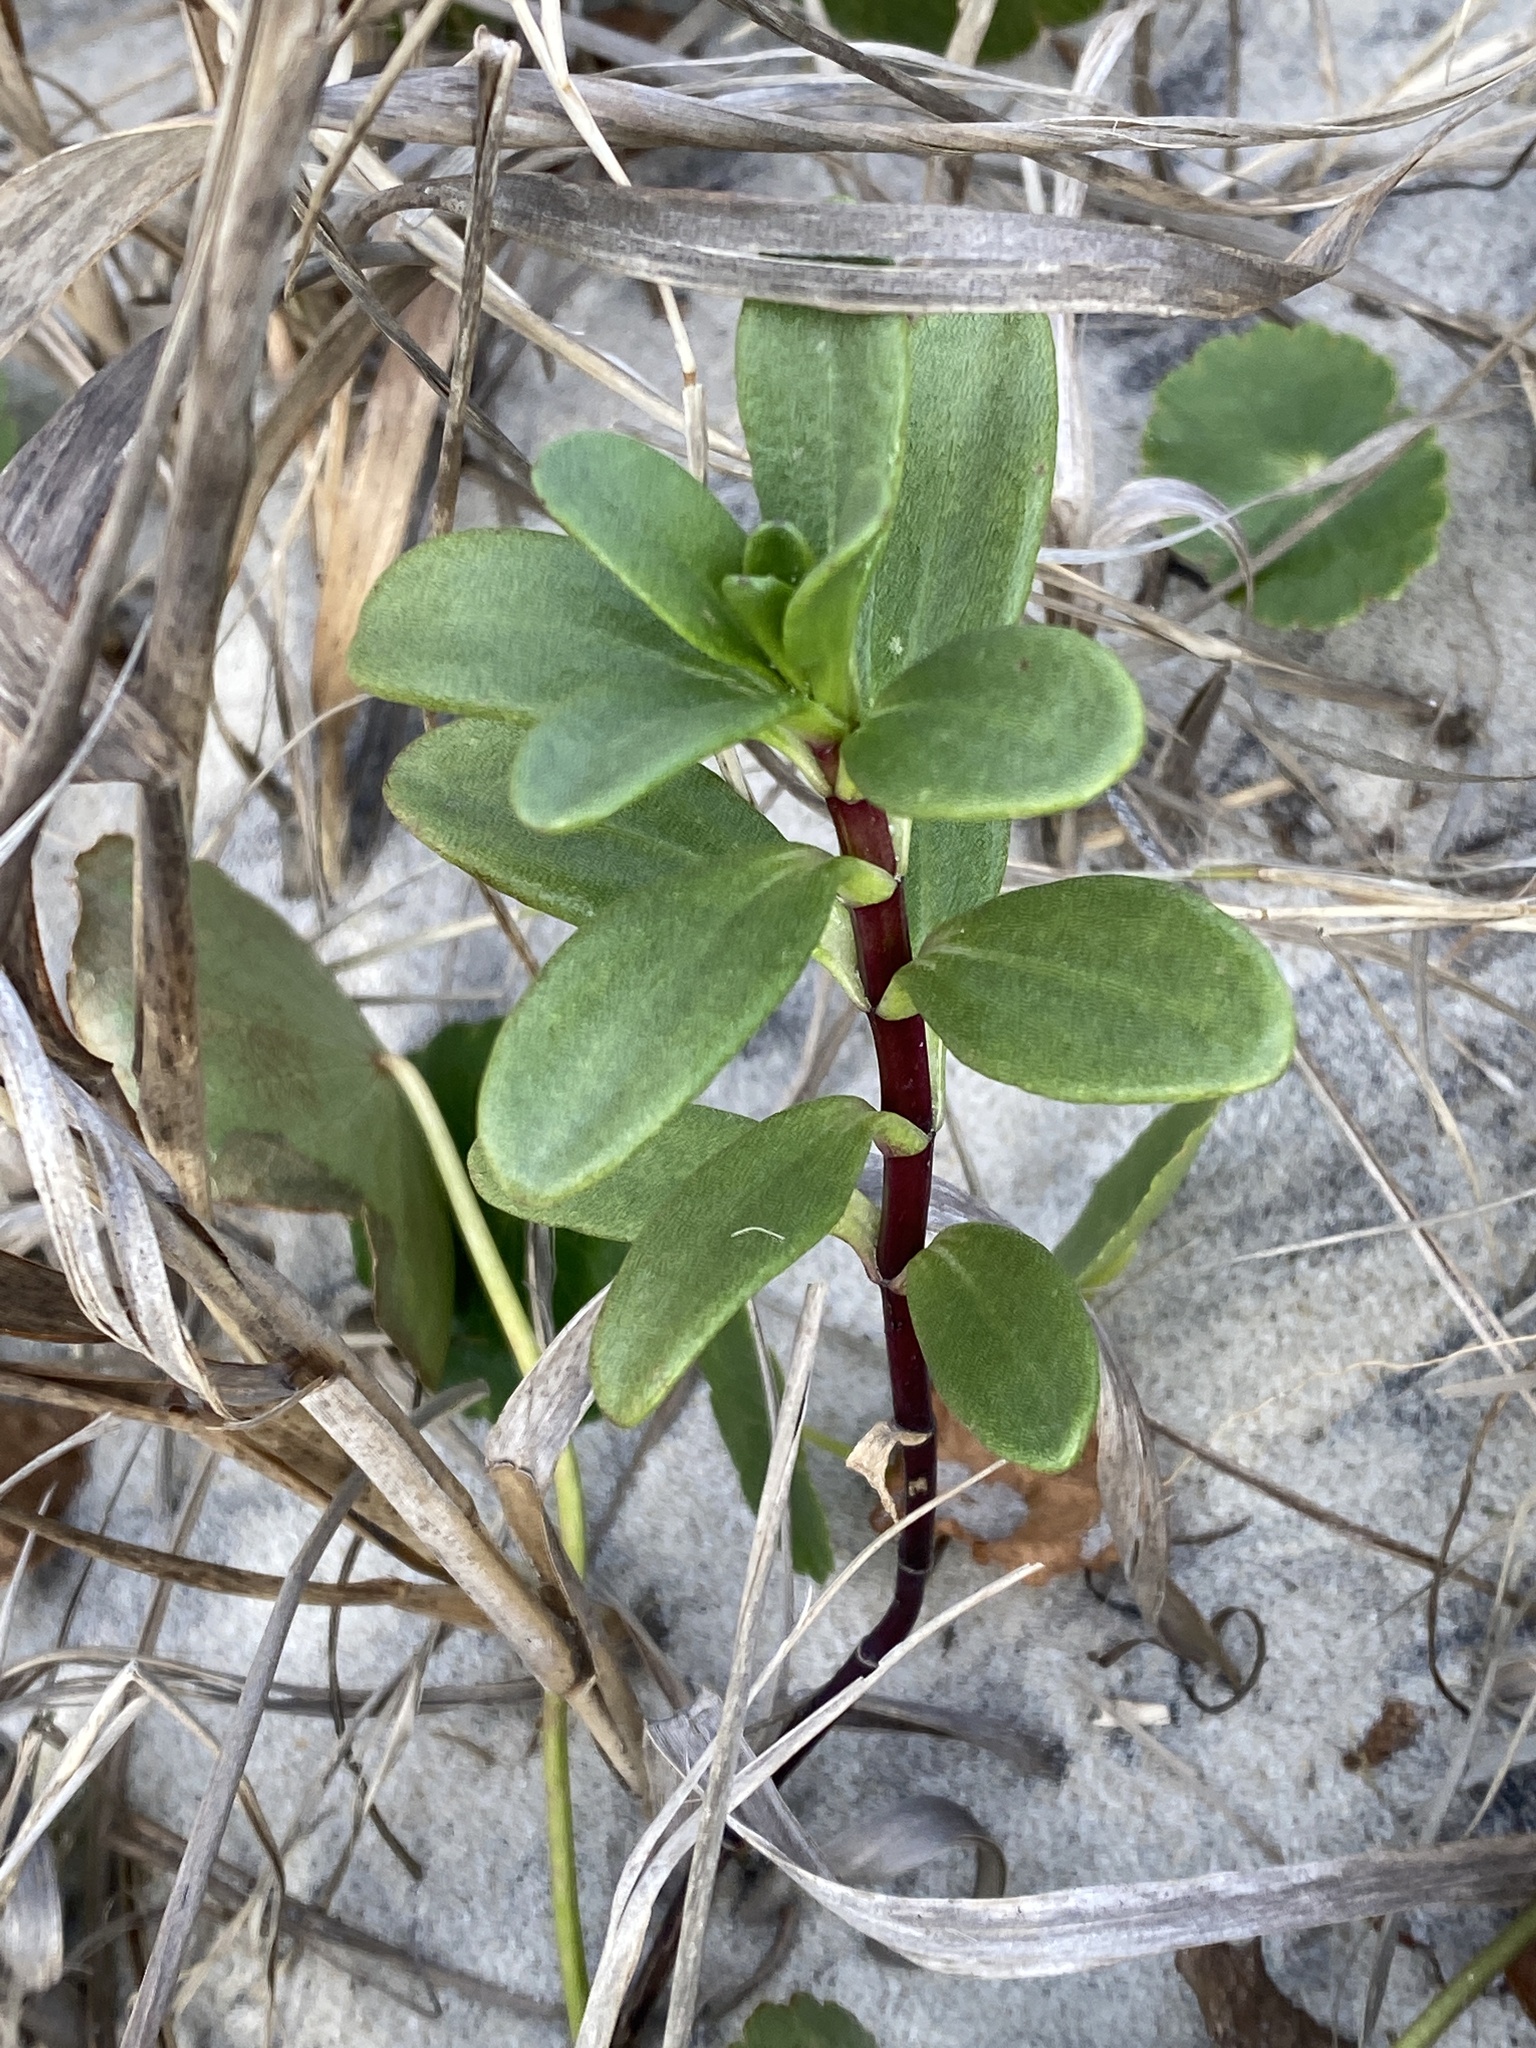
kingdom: Plantae
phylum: Tracheophyta
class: Magnoliopsida
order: Asterales
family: Asteraceae
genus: Iva
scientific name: Iva imbricata
